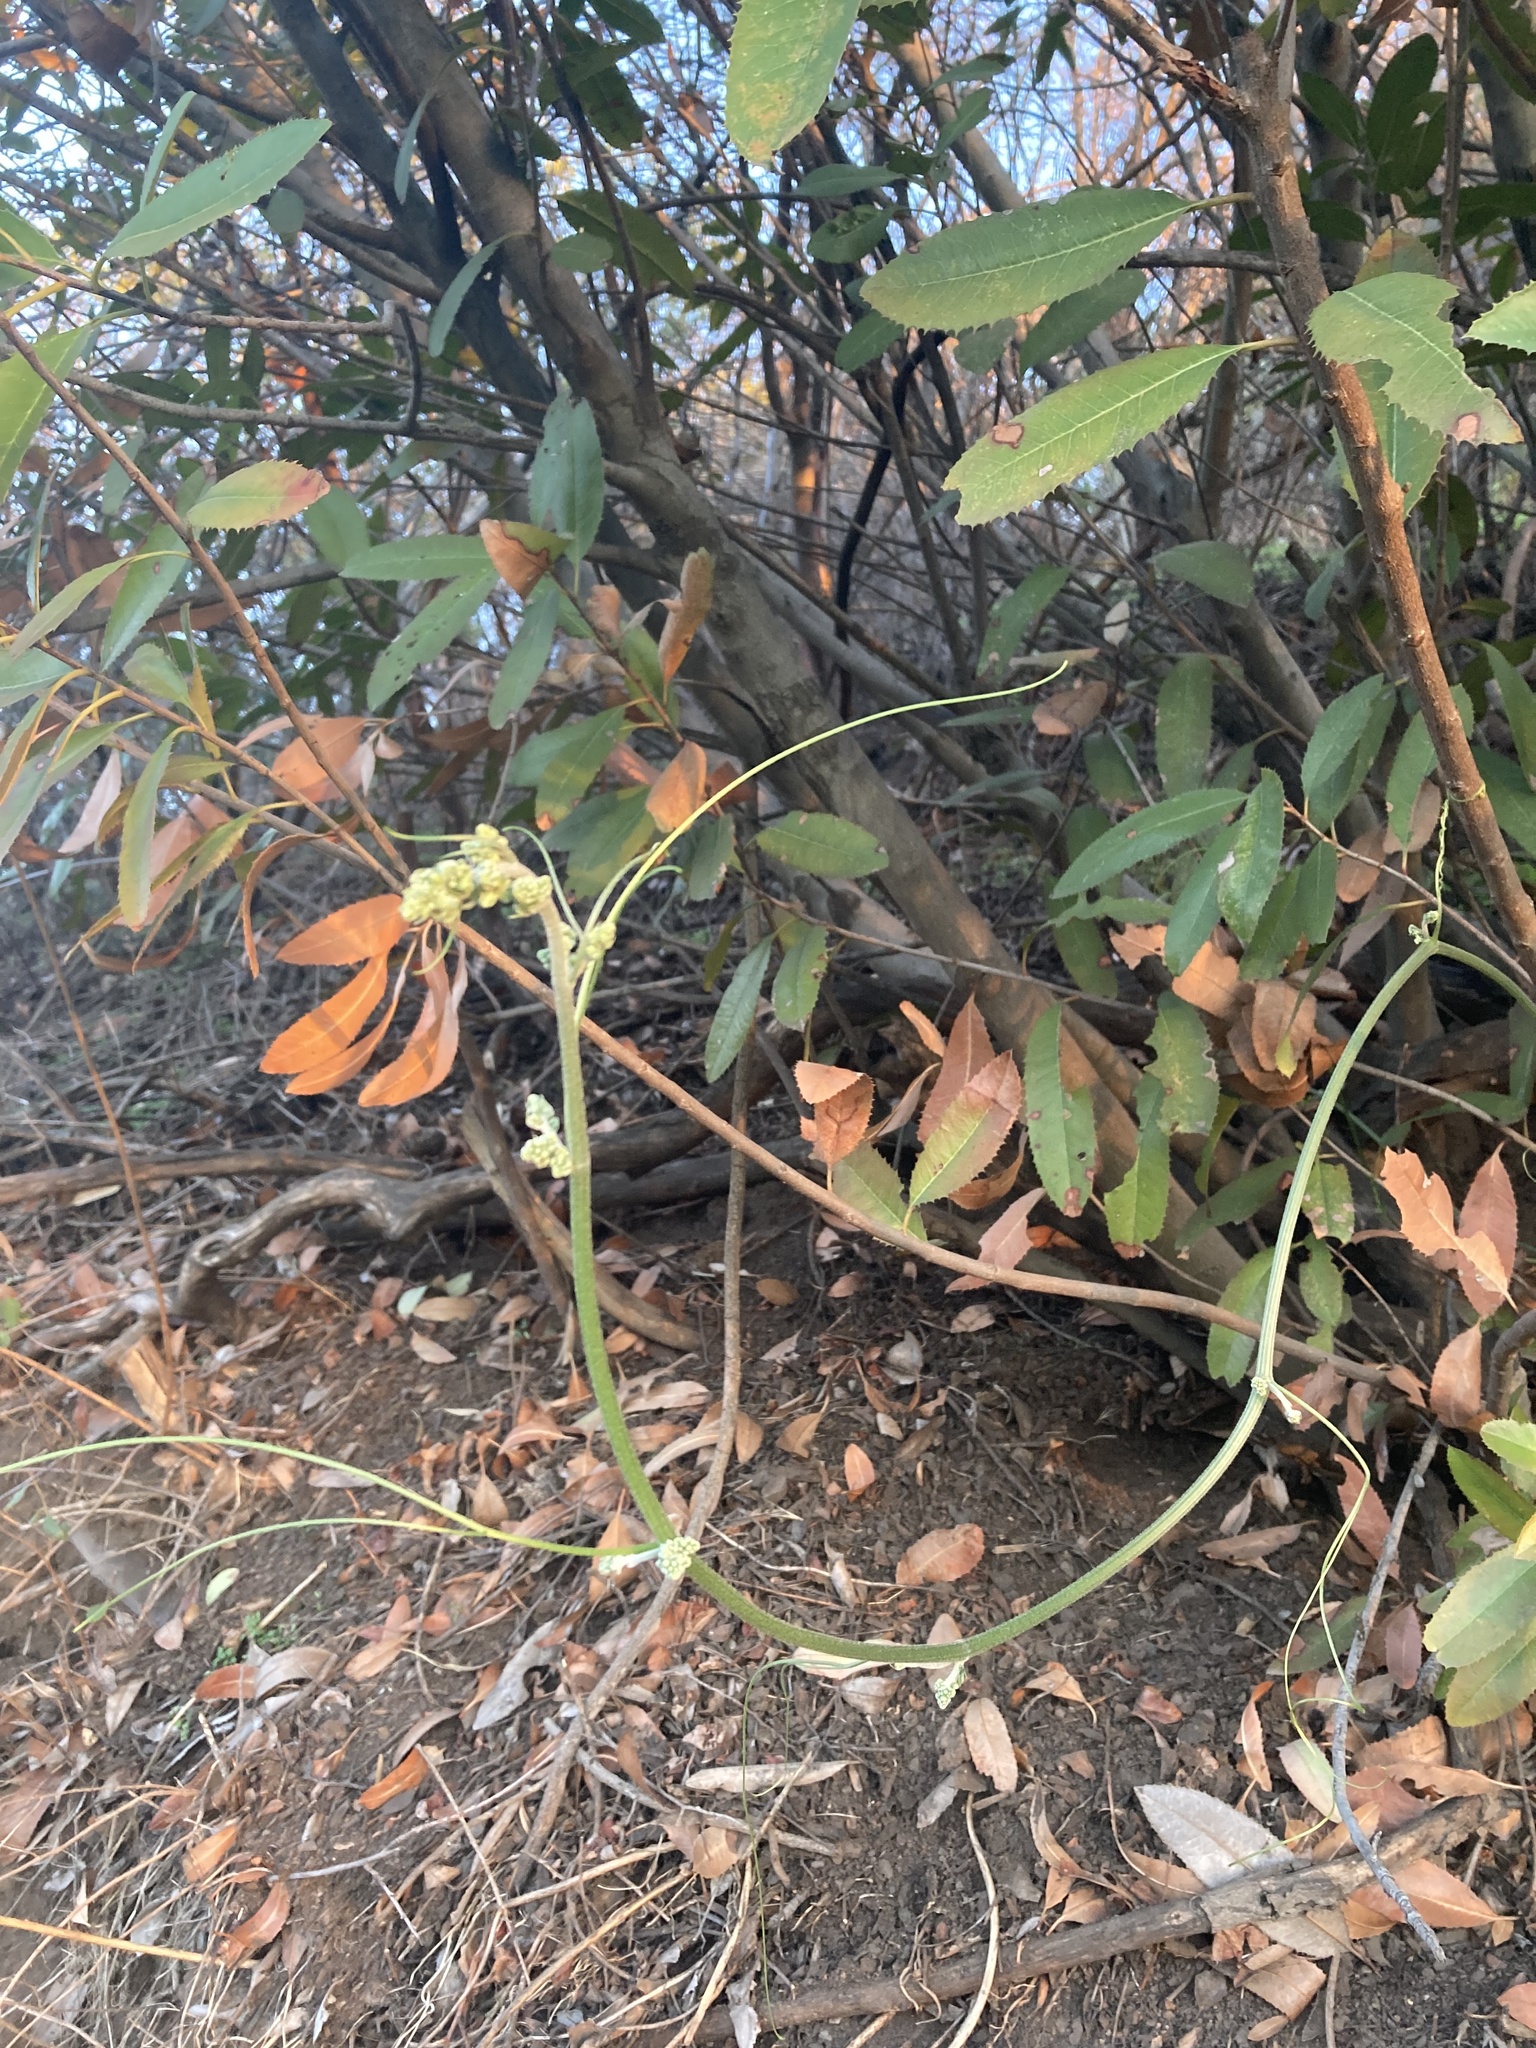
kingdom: Plantae
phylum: Tracheophyta
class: Magnoliopsida
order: Cucurbitales
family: Cucurbitaceae
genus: Marah
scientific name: Marah macrocarpa
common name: Cucamonga manroot
